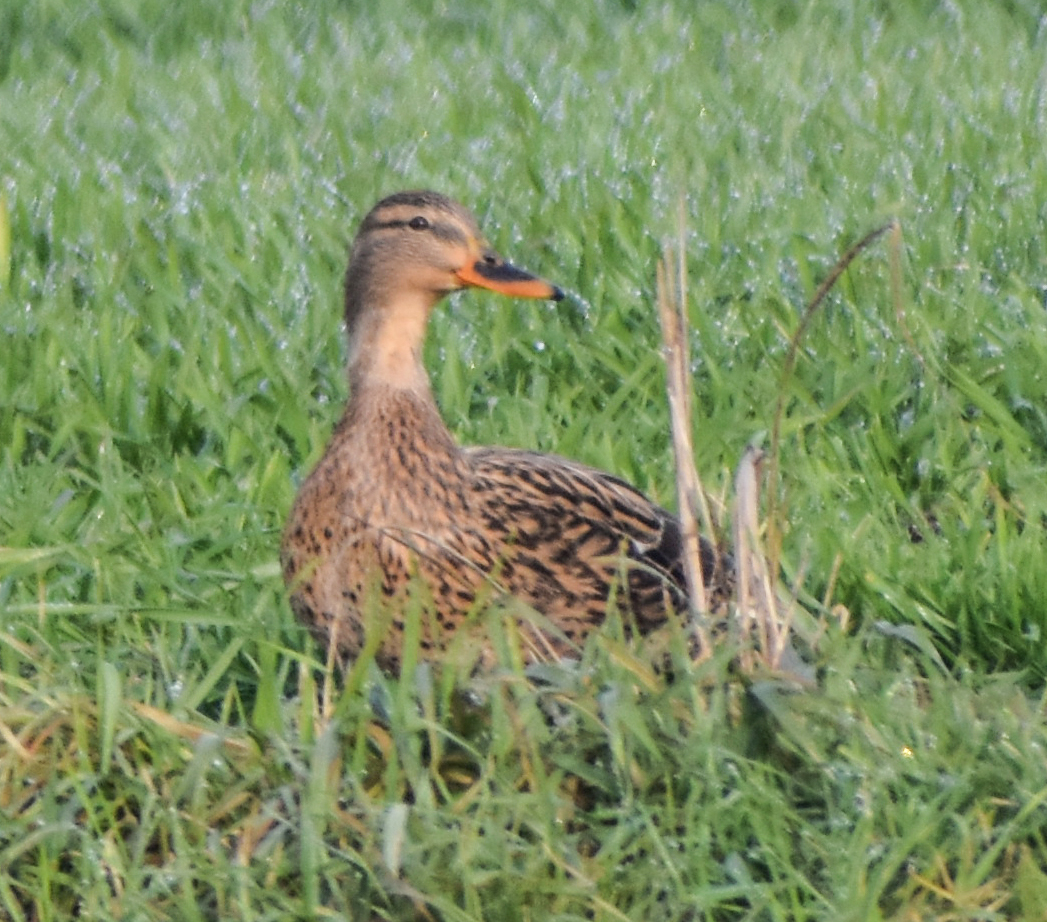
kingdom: Animalia
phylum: Chordata
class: Aves
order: Anseriformes
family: Anatidae
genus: Anas
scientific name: Anas platyrhynchos
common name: Mallard
